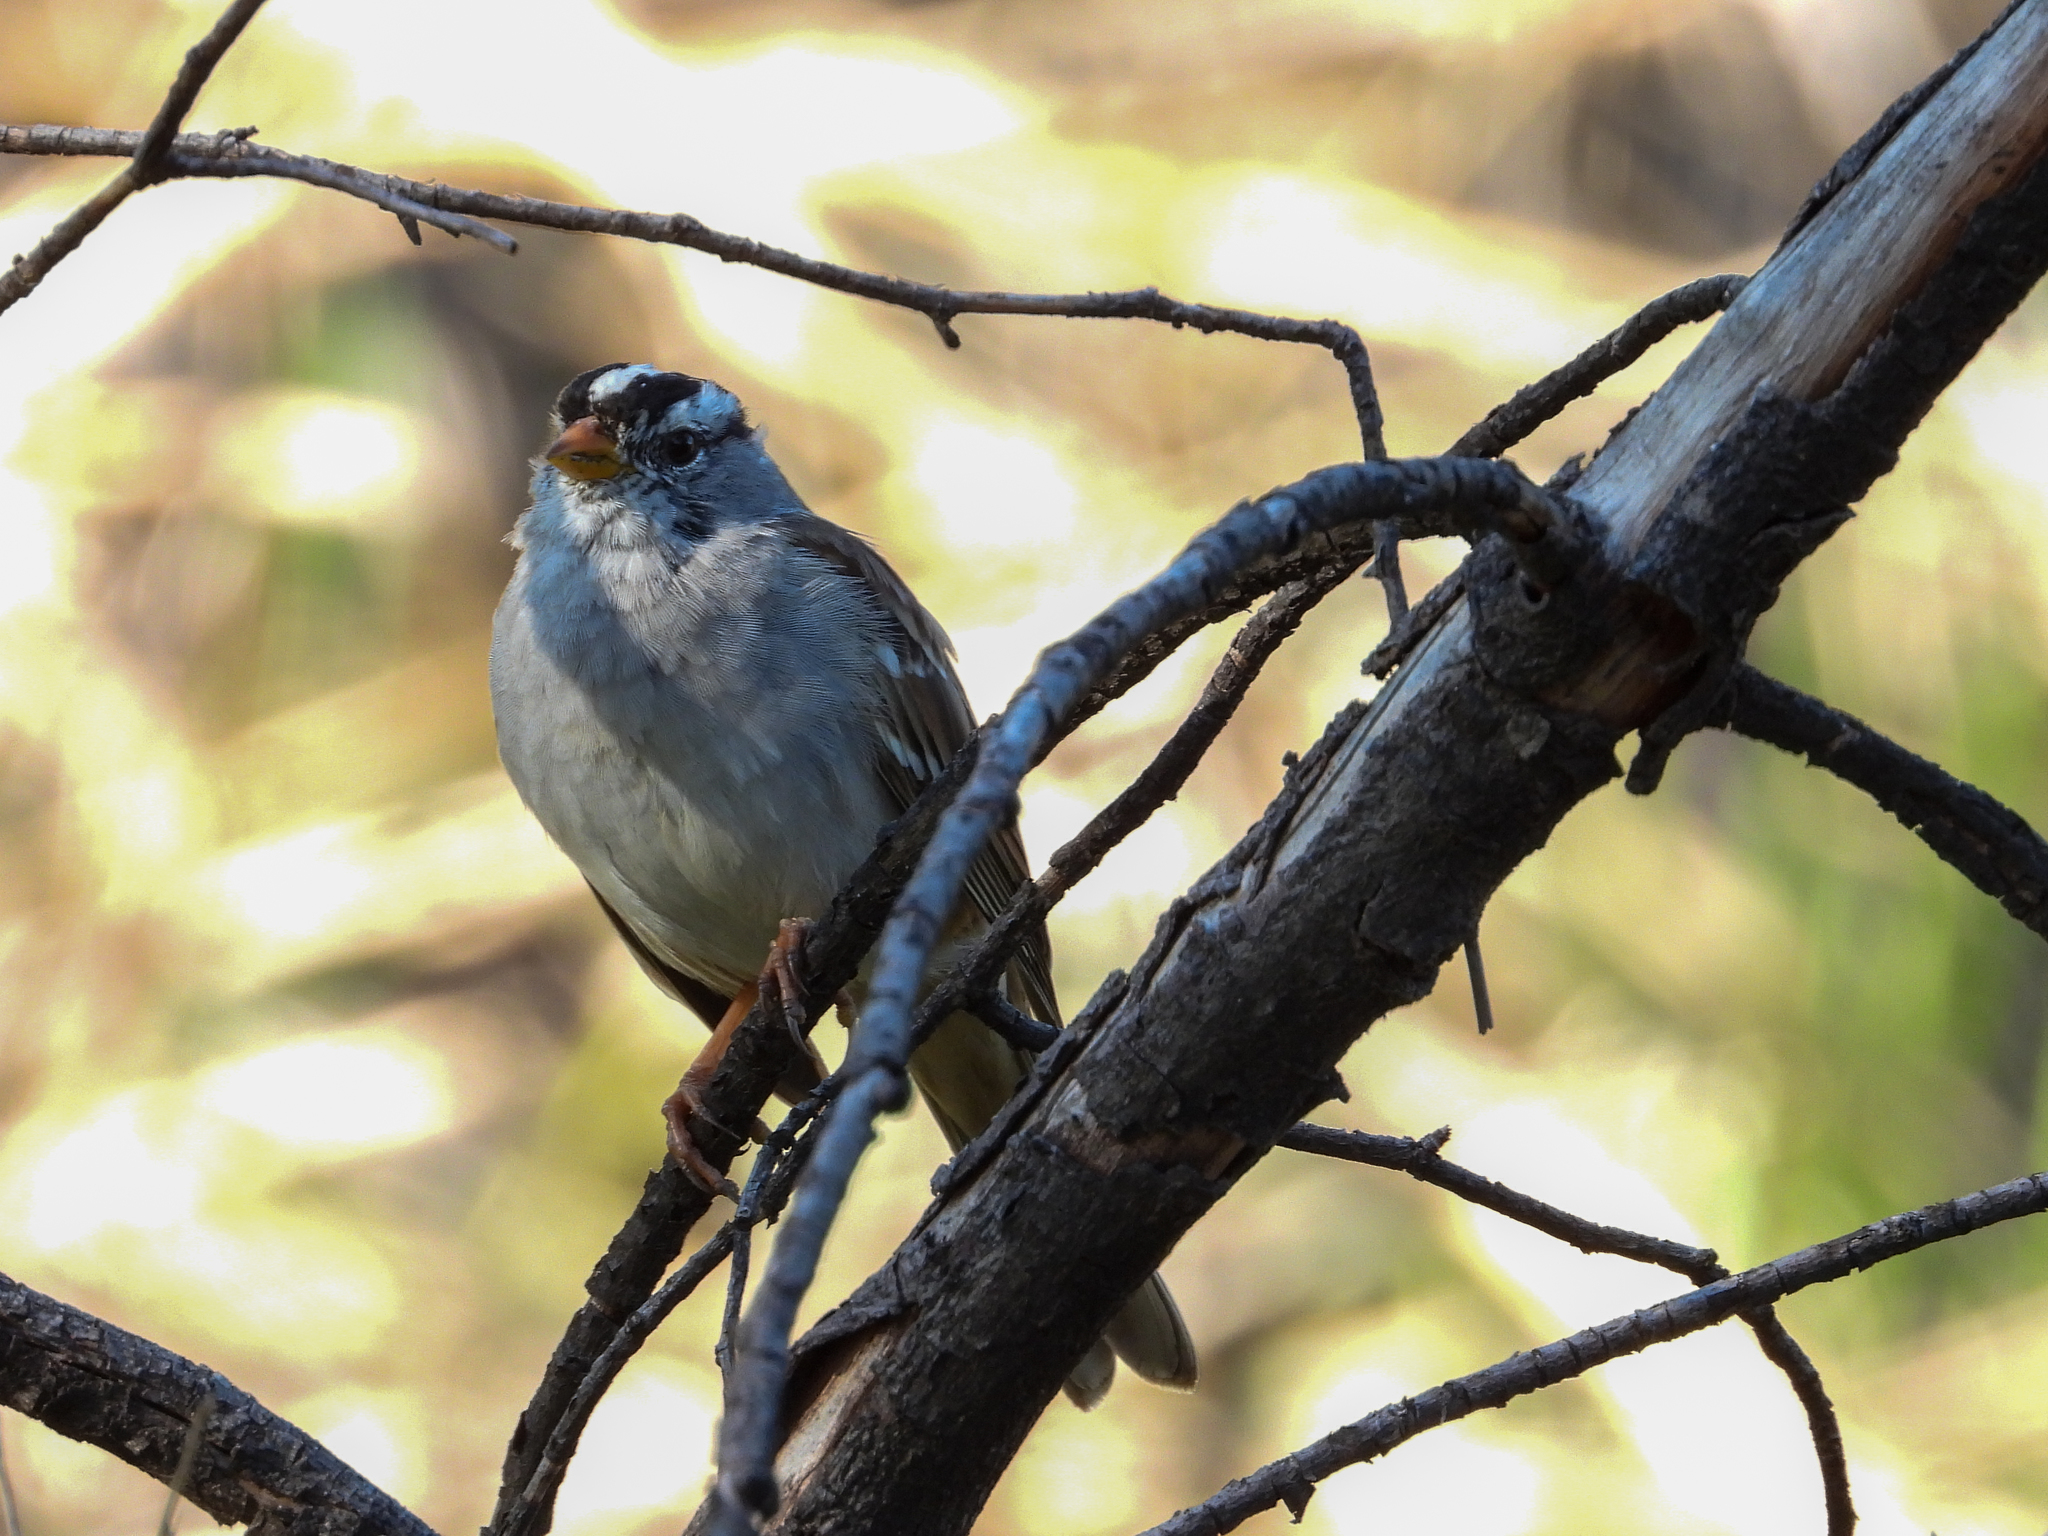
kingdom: Animalia
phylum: Chordata
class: Aves
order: Passeriformes
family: Passerellidae
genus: Zonotrichia
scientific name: Zonotrichia leucophrys
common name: White-crowned sparrow
